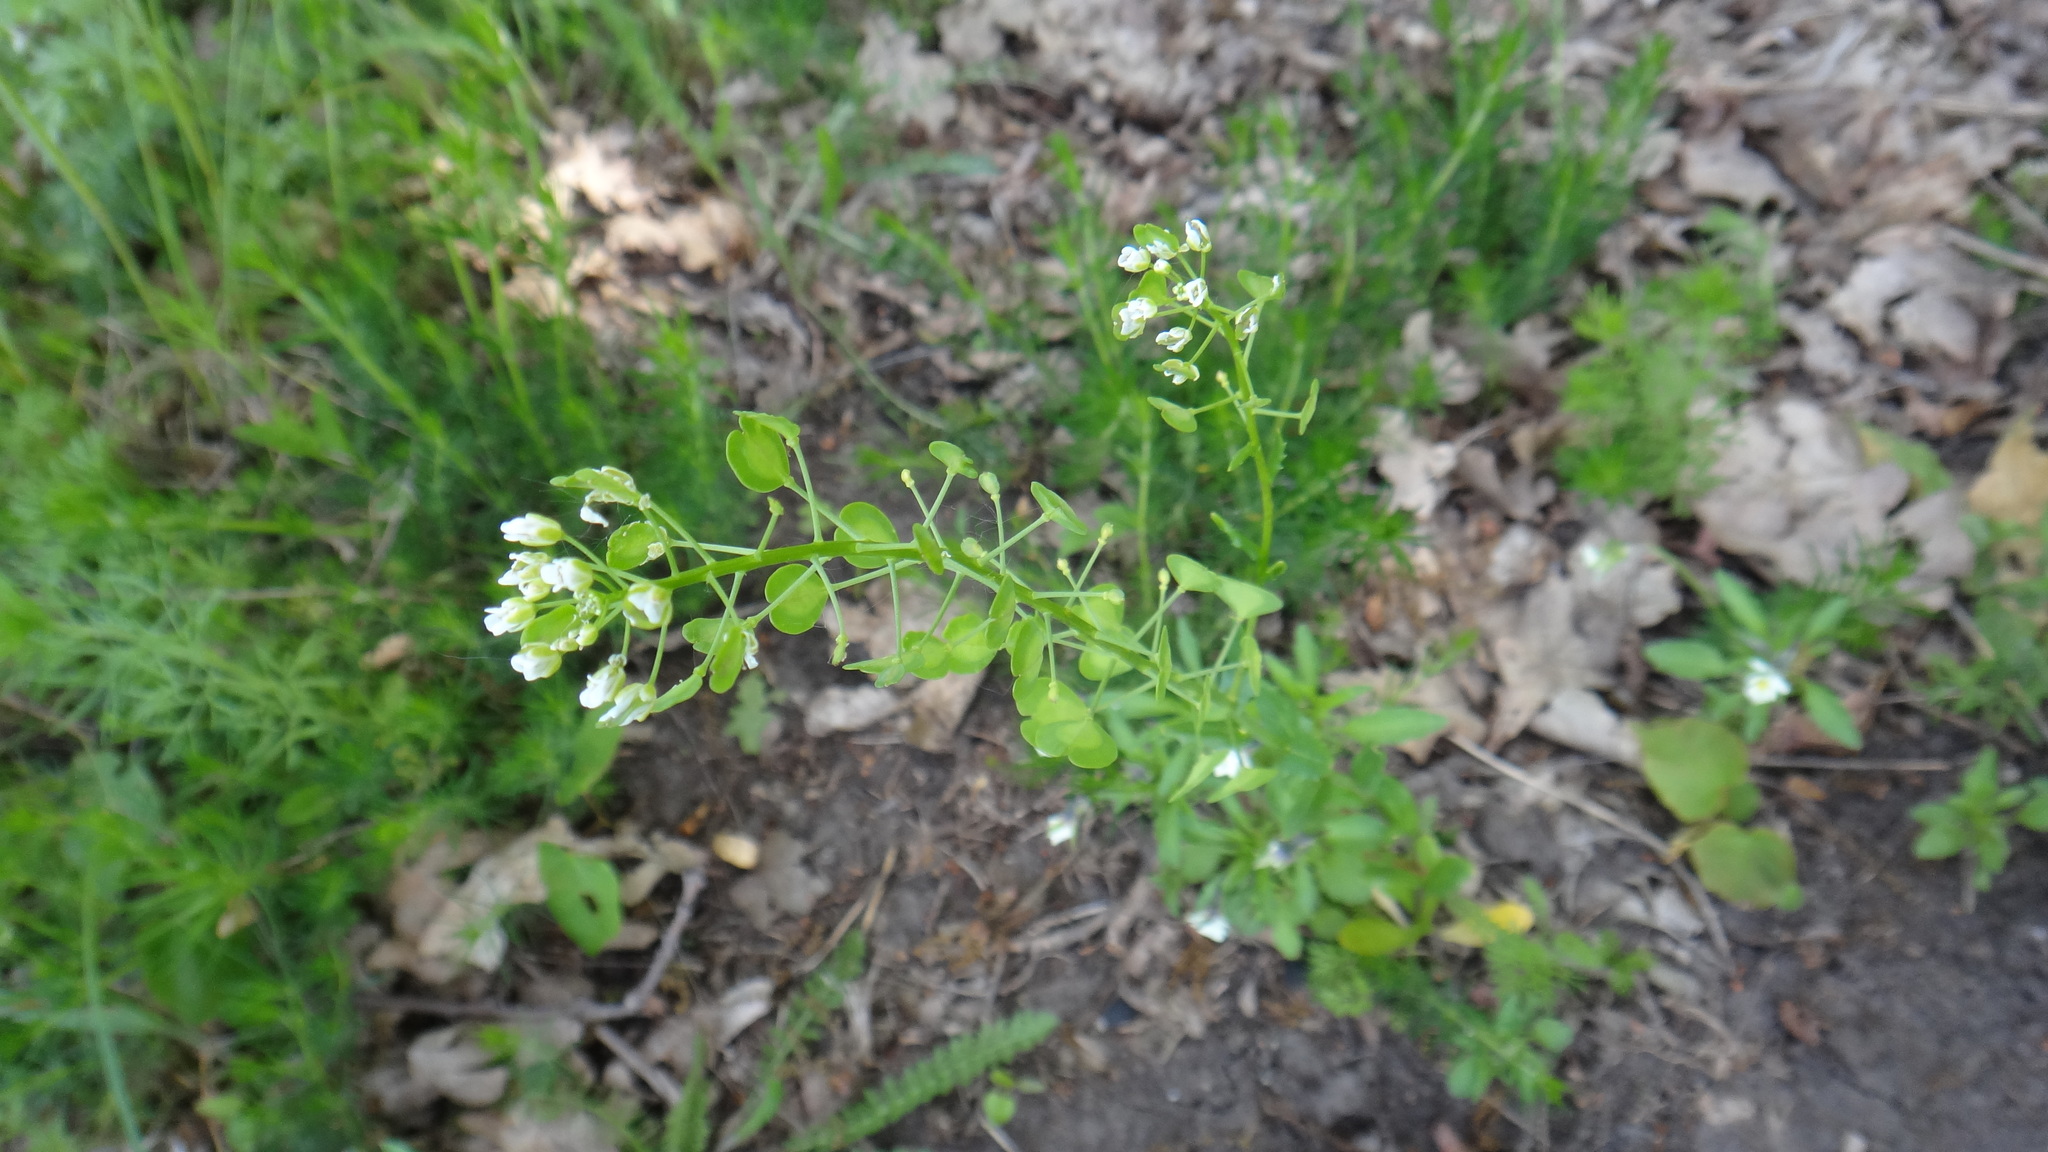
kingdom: Plantae
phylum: Tracheophyta
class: Magnoliopsida
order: Brassicales
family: Brassicaceae
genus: Thlaspi
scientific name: Thlaspi arvense
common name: Field pennycress
